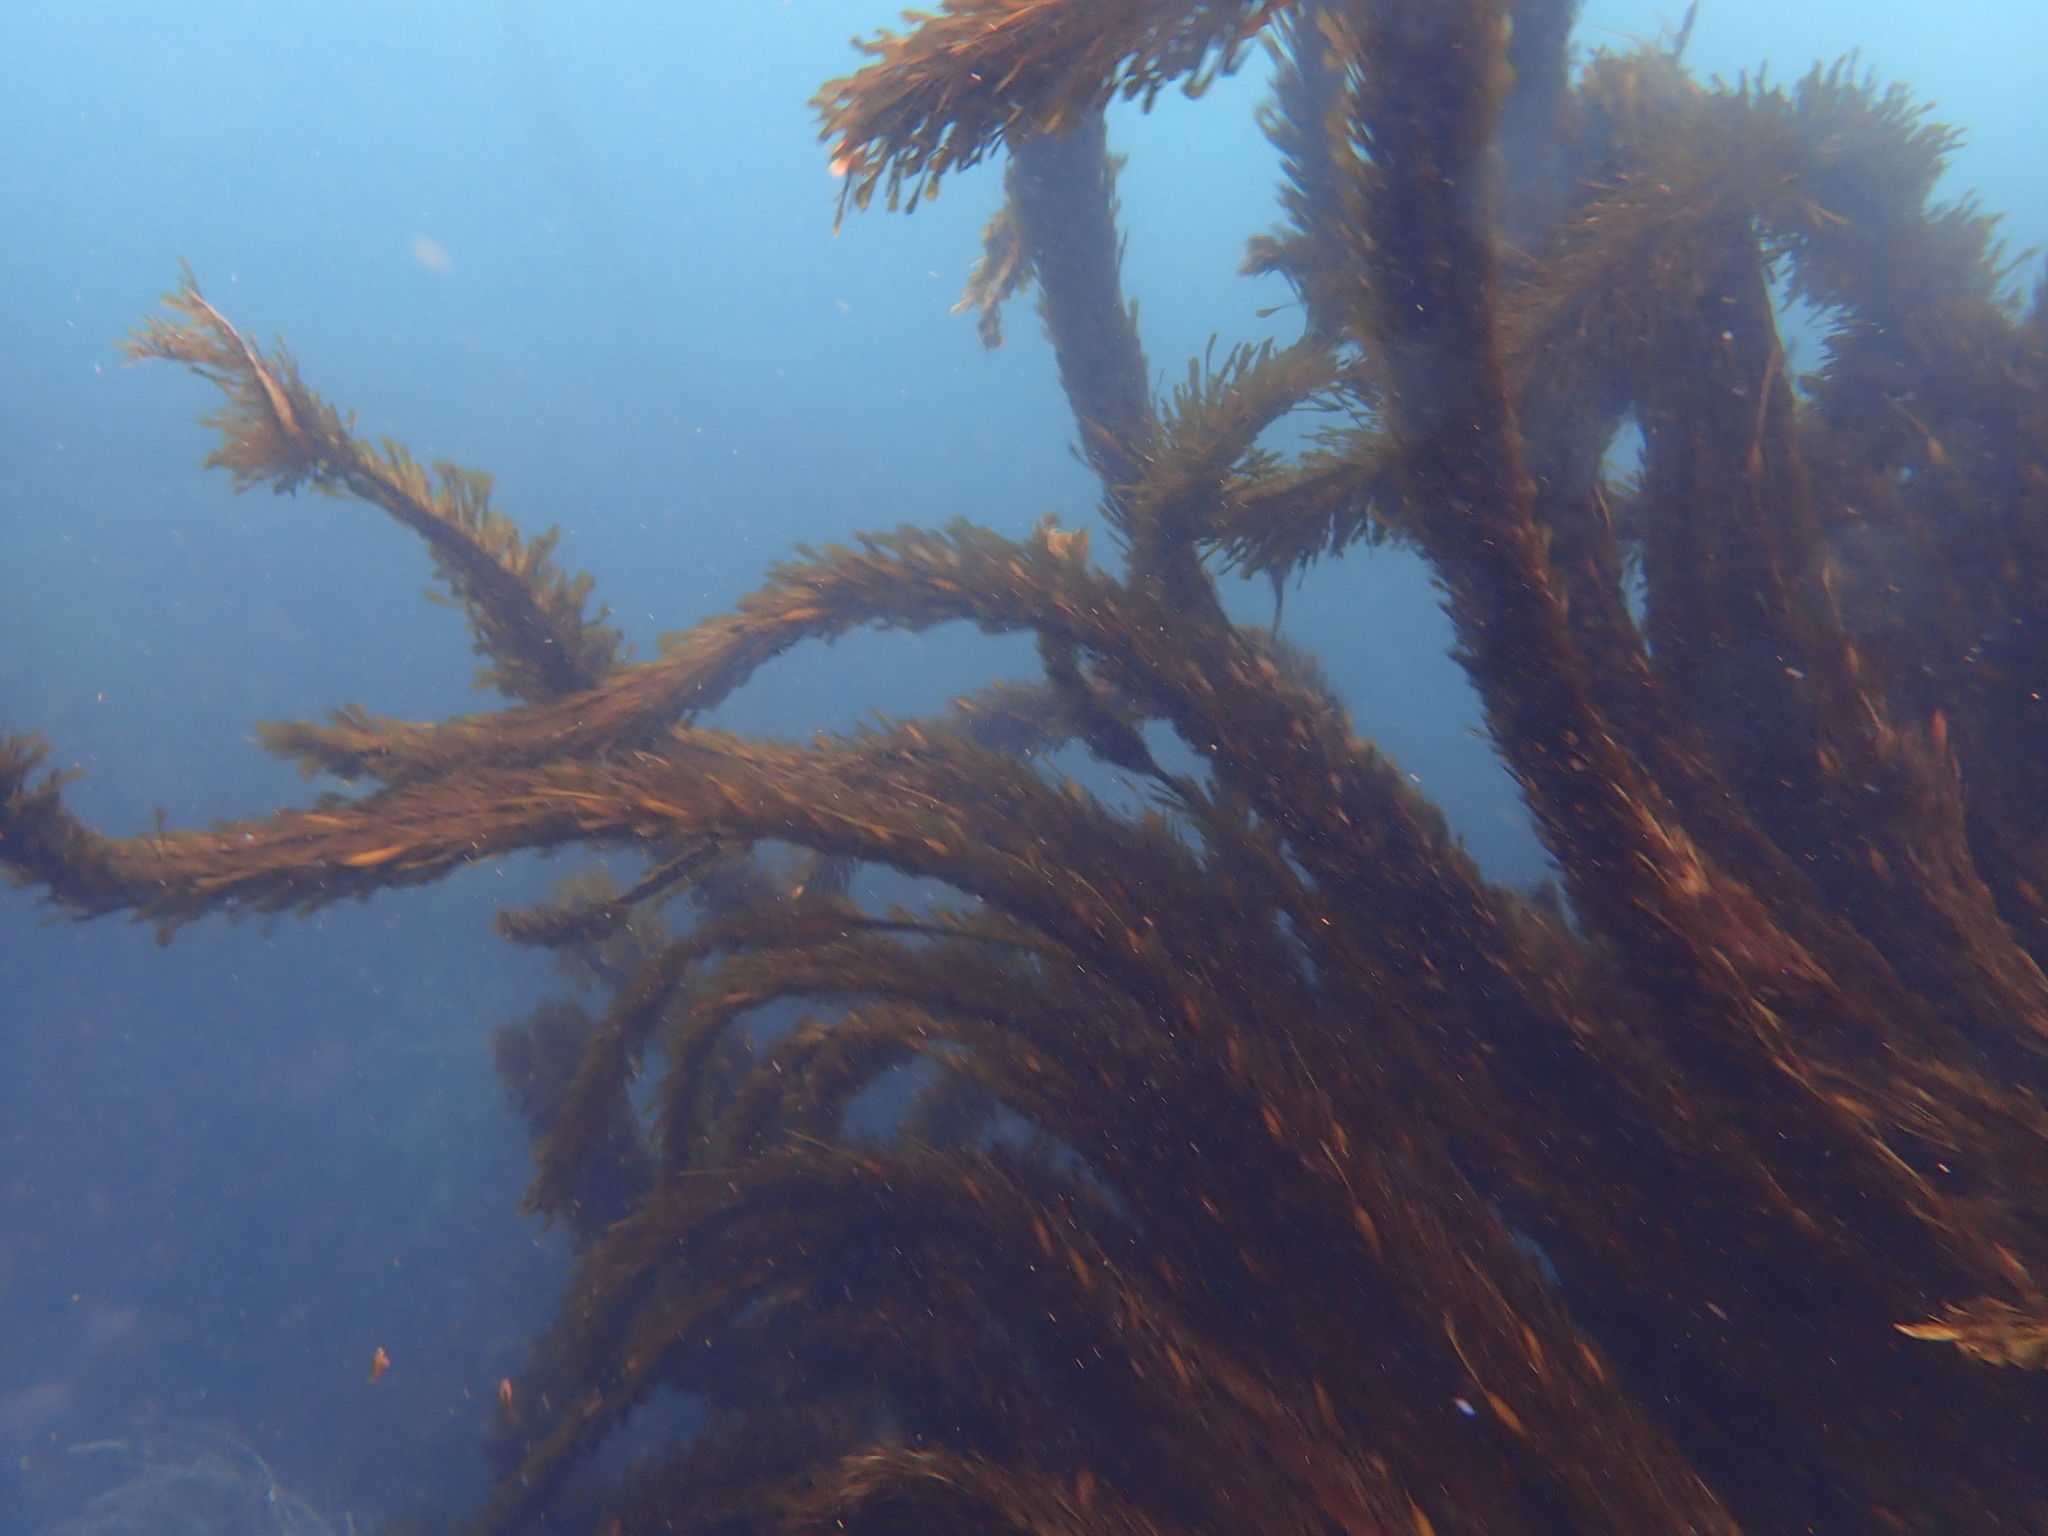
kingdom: Chromista
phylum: Ochrophyta
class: Phaeophyceae
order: Laminariales
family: Lessoniaceae
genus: Egregia
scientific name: Egregia menziesii
